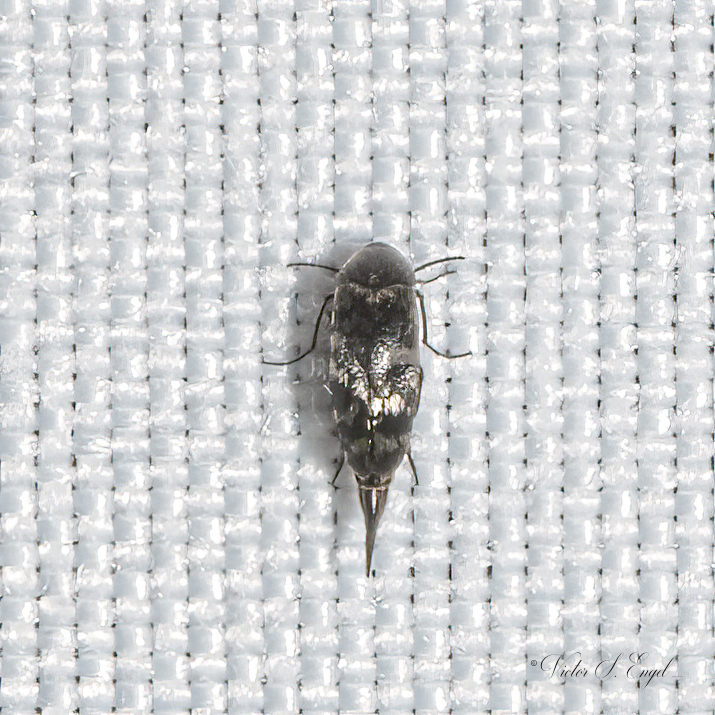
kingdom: Animalia
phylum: Arthropoda
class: Insecta
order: Coleoptera
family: Mordellidae
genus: Mordellina
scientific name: Mordellina pustulata
